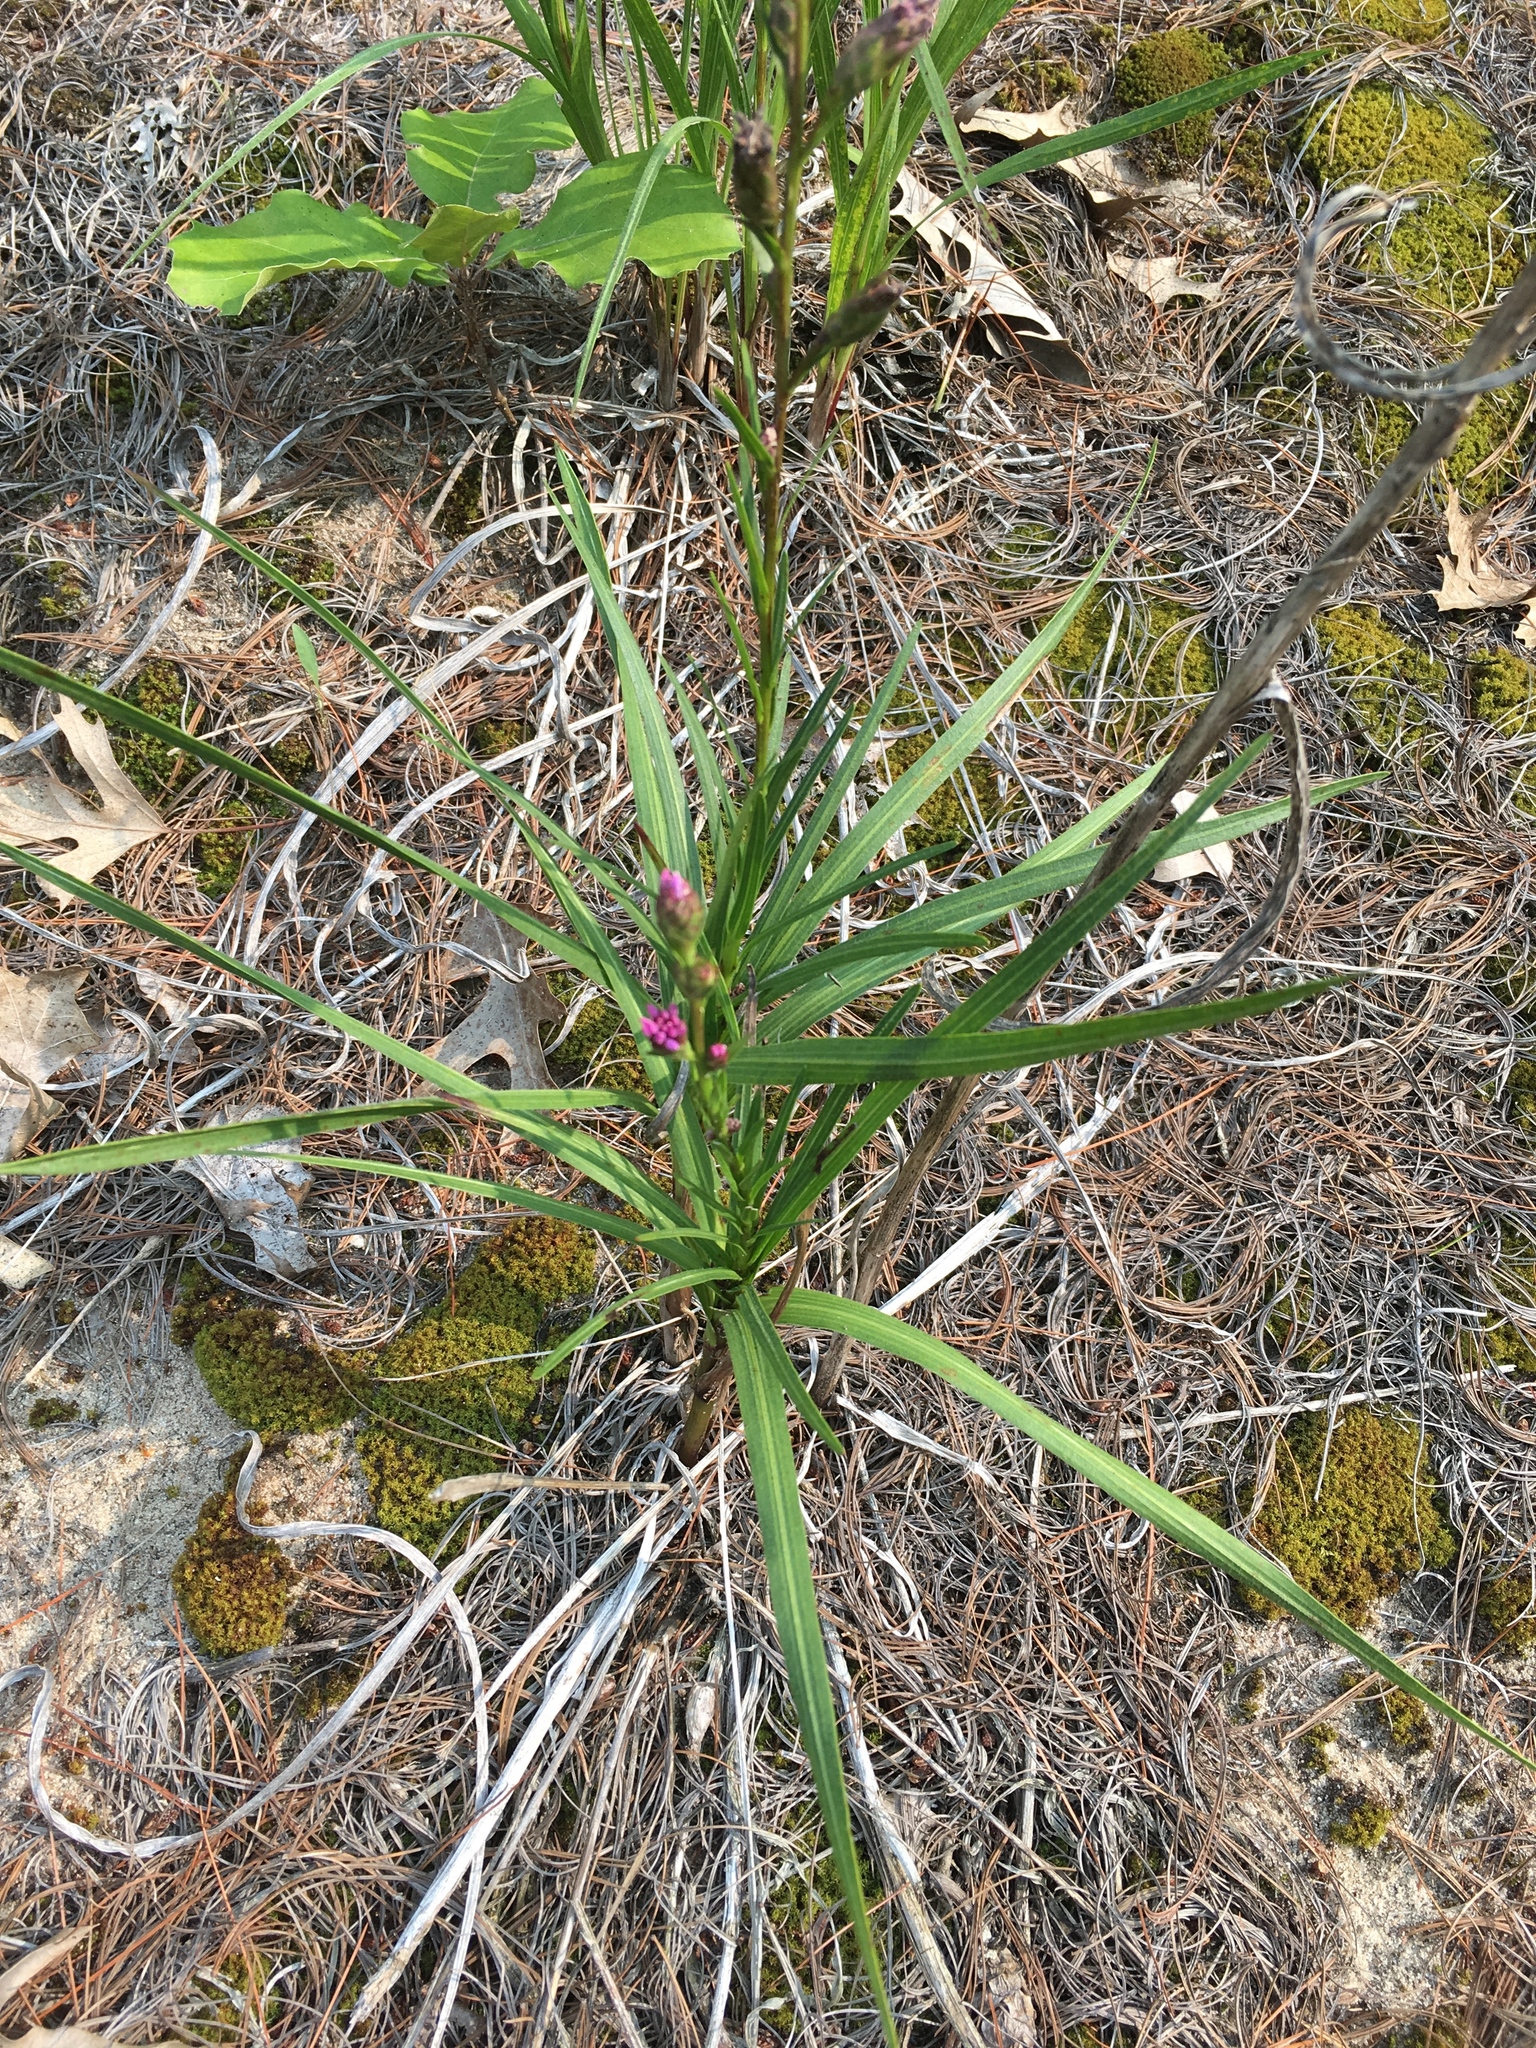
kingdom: Plantae
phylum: Tracheophyta
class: Magnoliopsida
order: Asterales
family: Asteraceae
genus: Liatris
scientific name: Liatris cylindracea
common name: Few-head blazingstar
